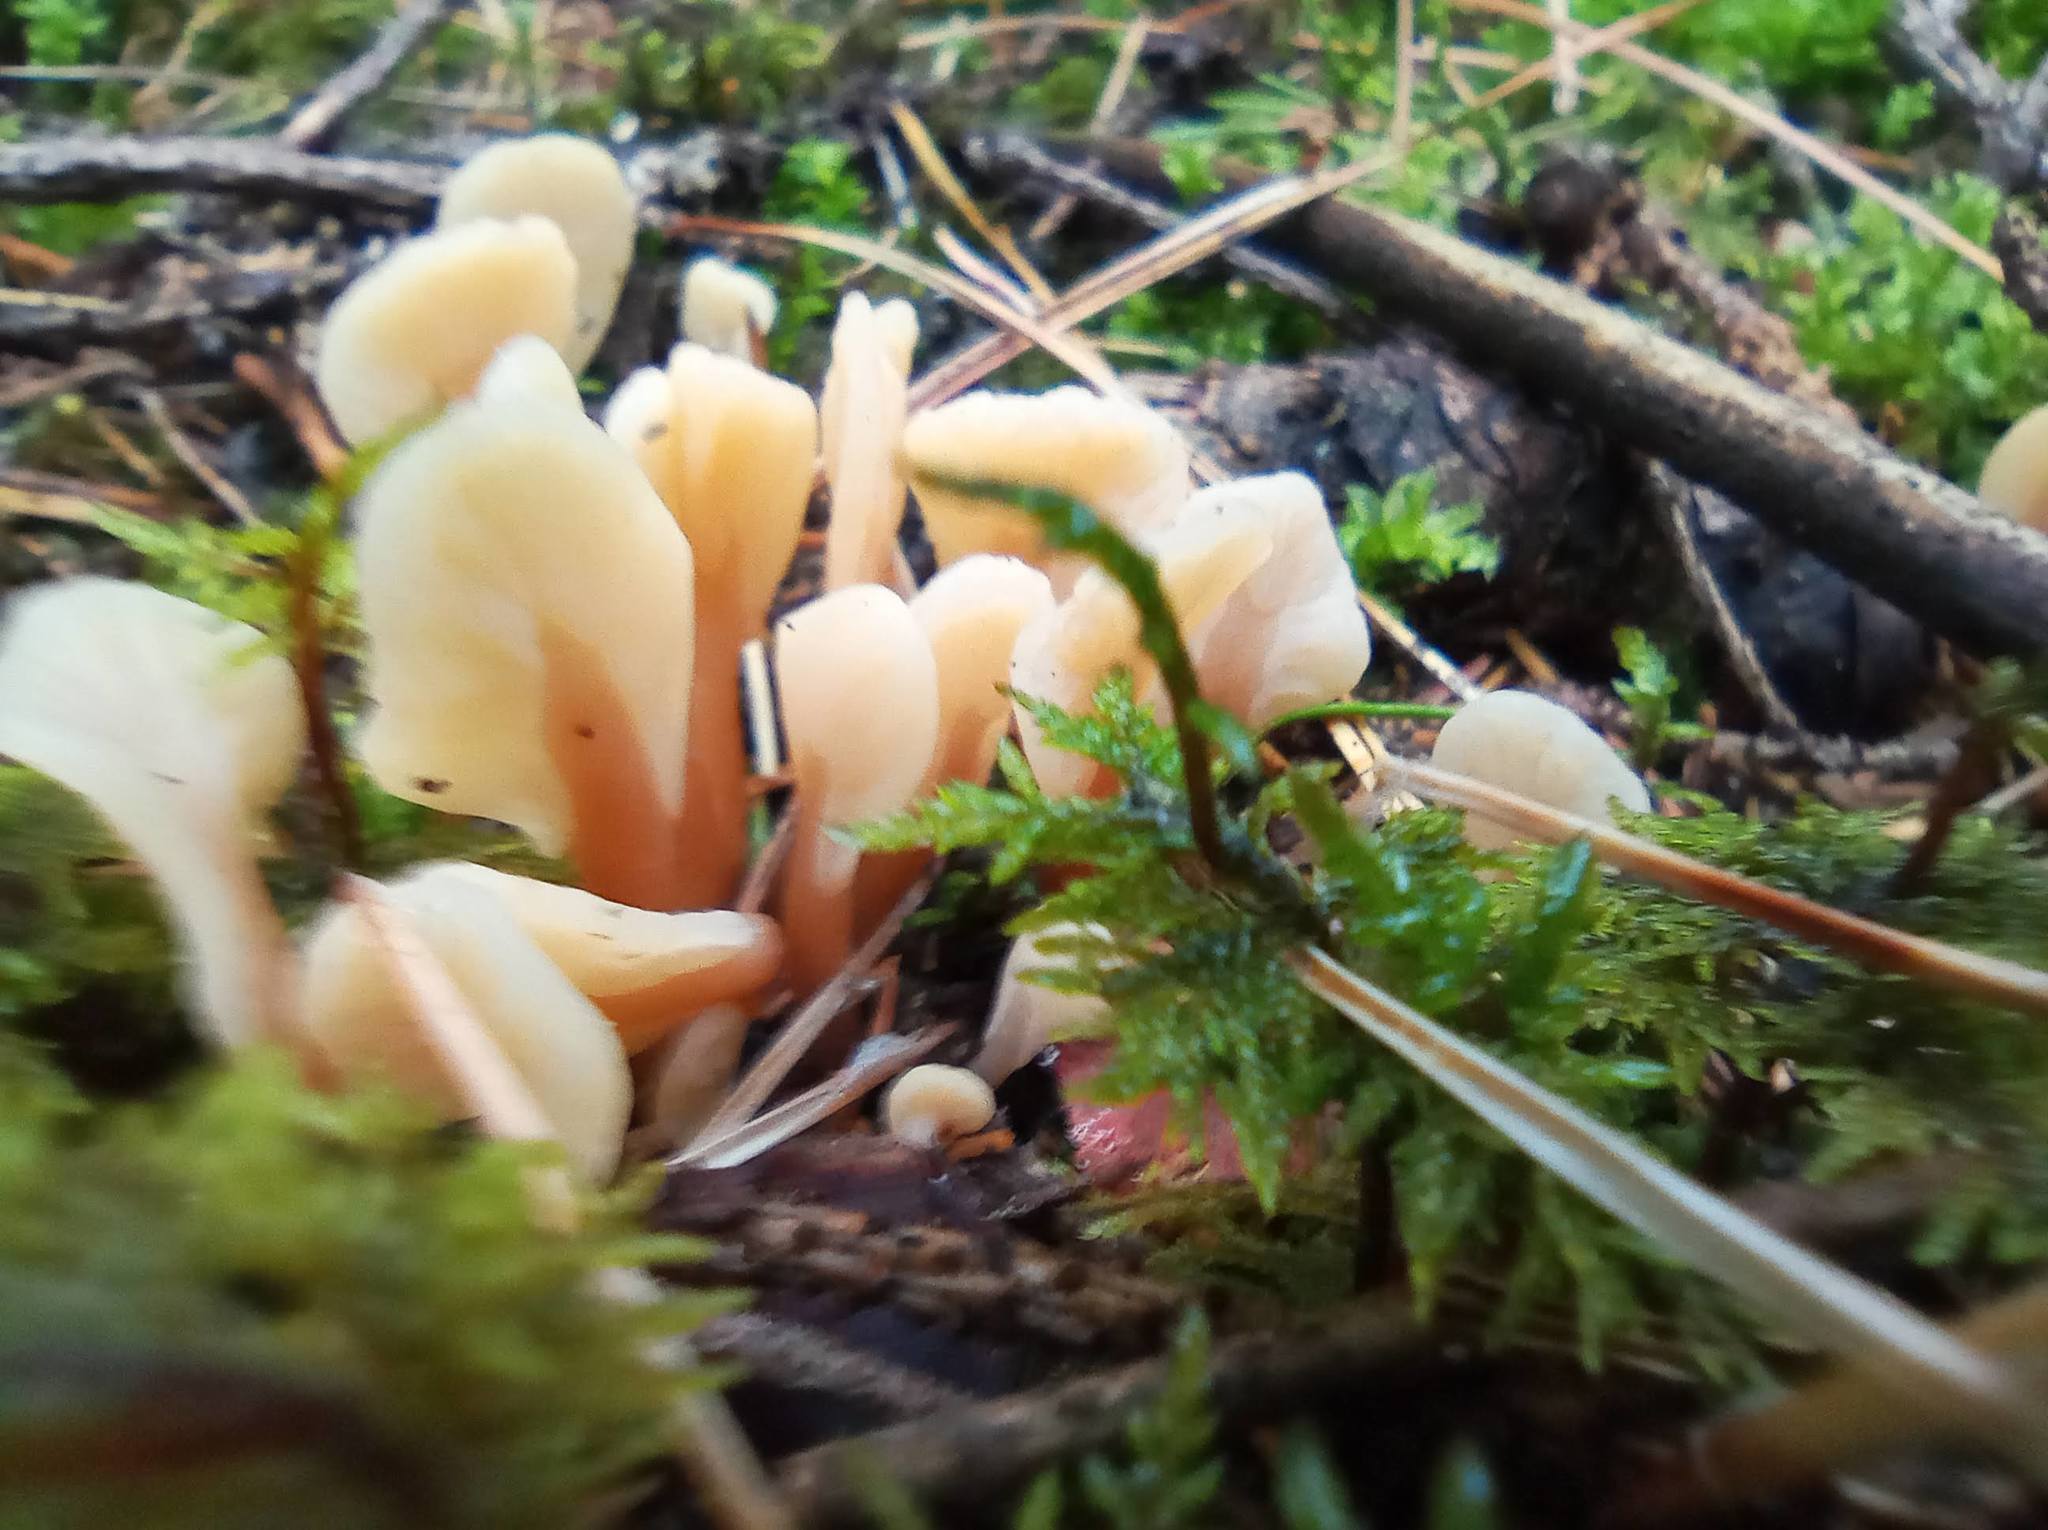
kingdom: Fungi
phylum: Ascomycota
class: Leotiomycetes
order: Rhytismatales
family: Cudoniaceae
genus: Spathularia
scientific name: Spathularia rufa
